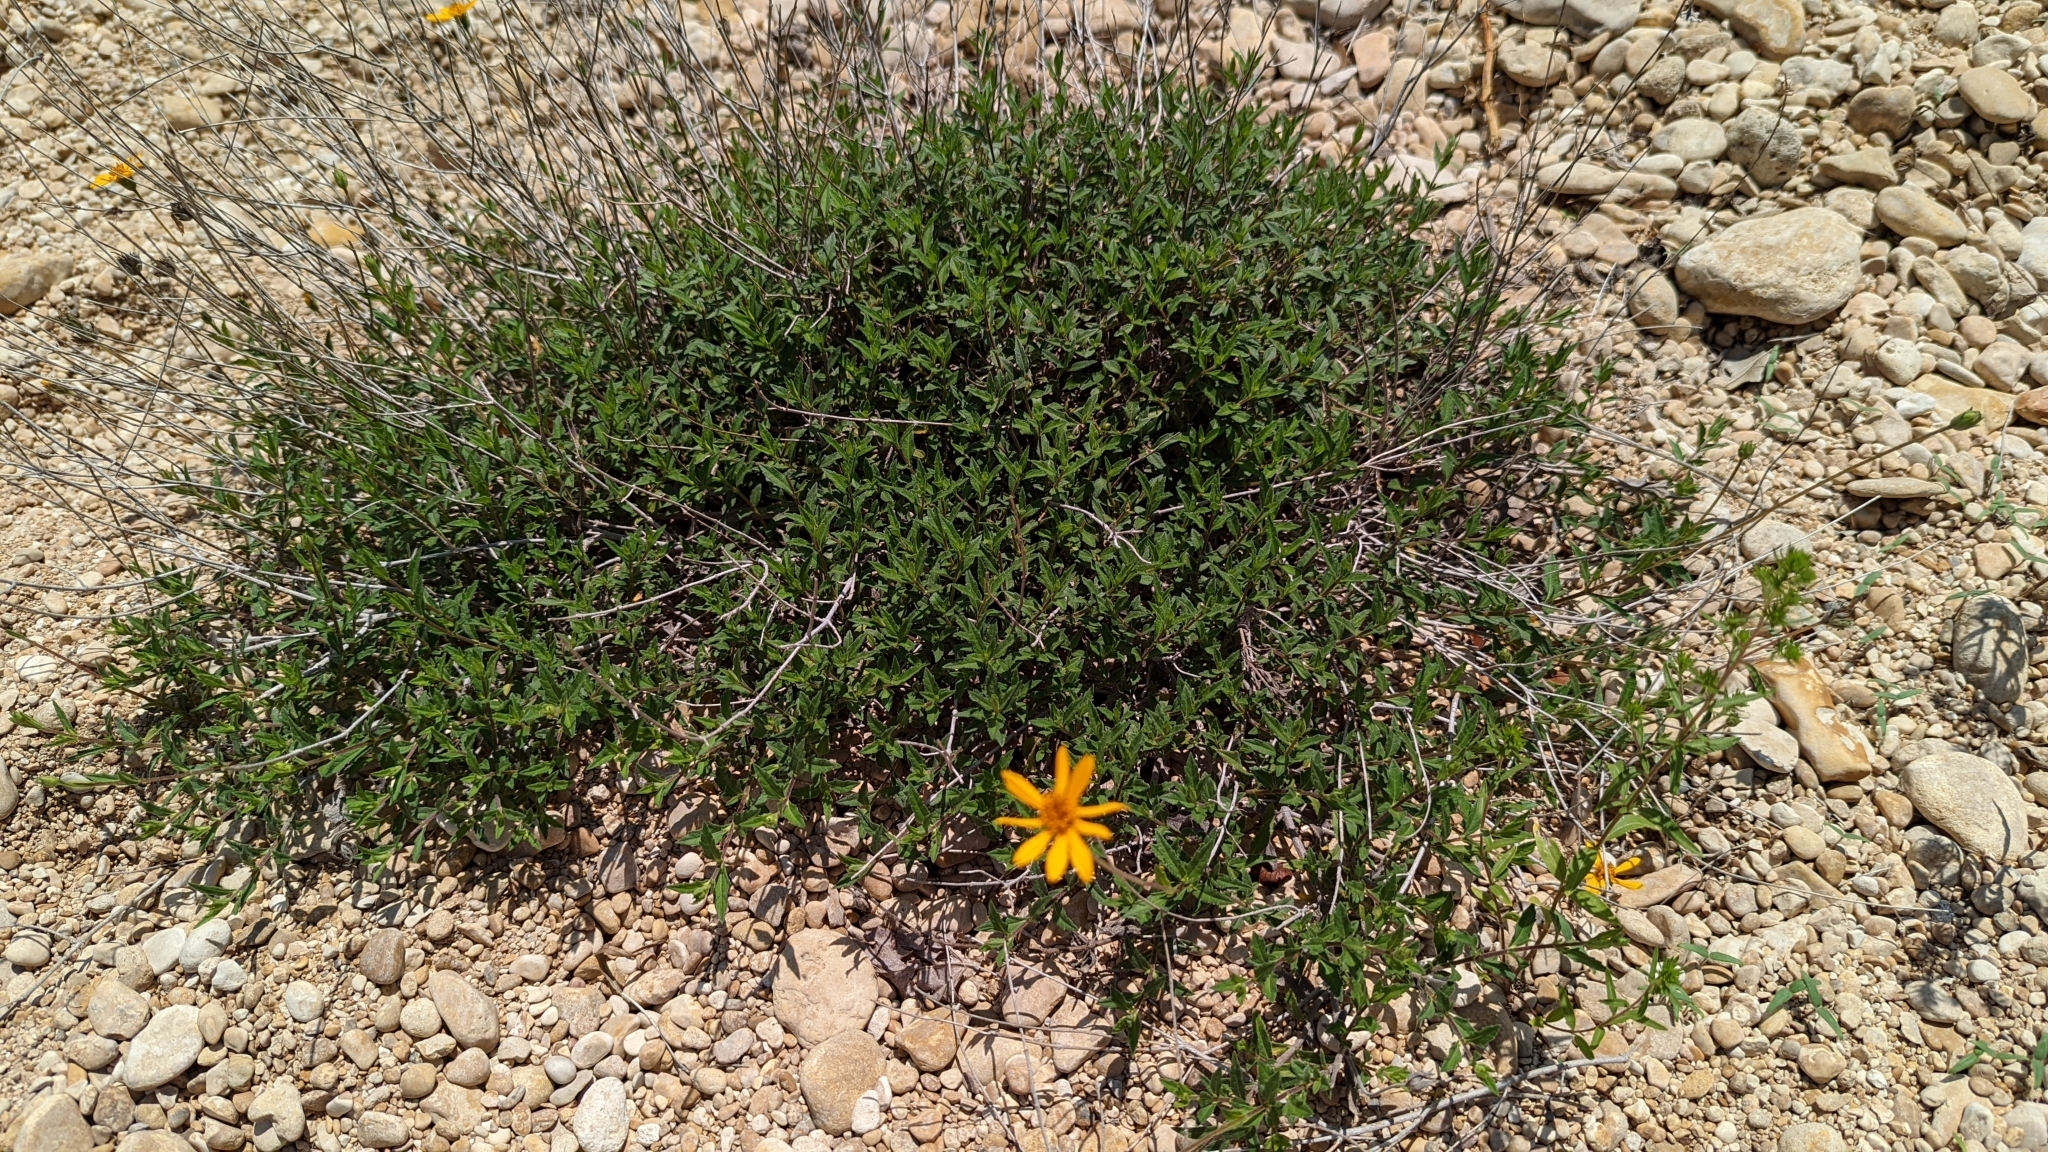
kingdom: Plantae
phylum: Tracheophyta
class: Magnoliopsida
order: Asterales
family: Asteraceae
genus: Wedelia
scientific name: Wedelia acapulcensis
